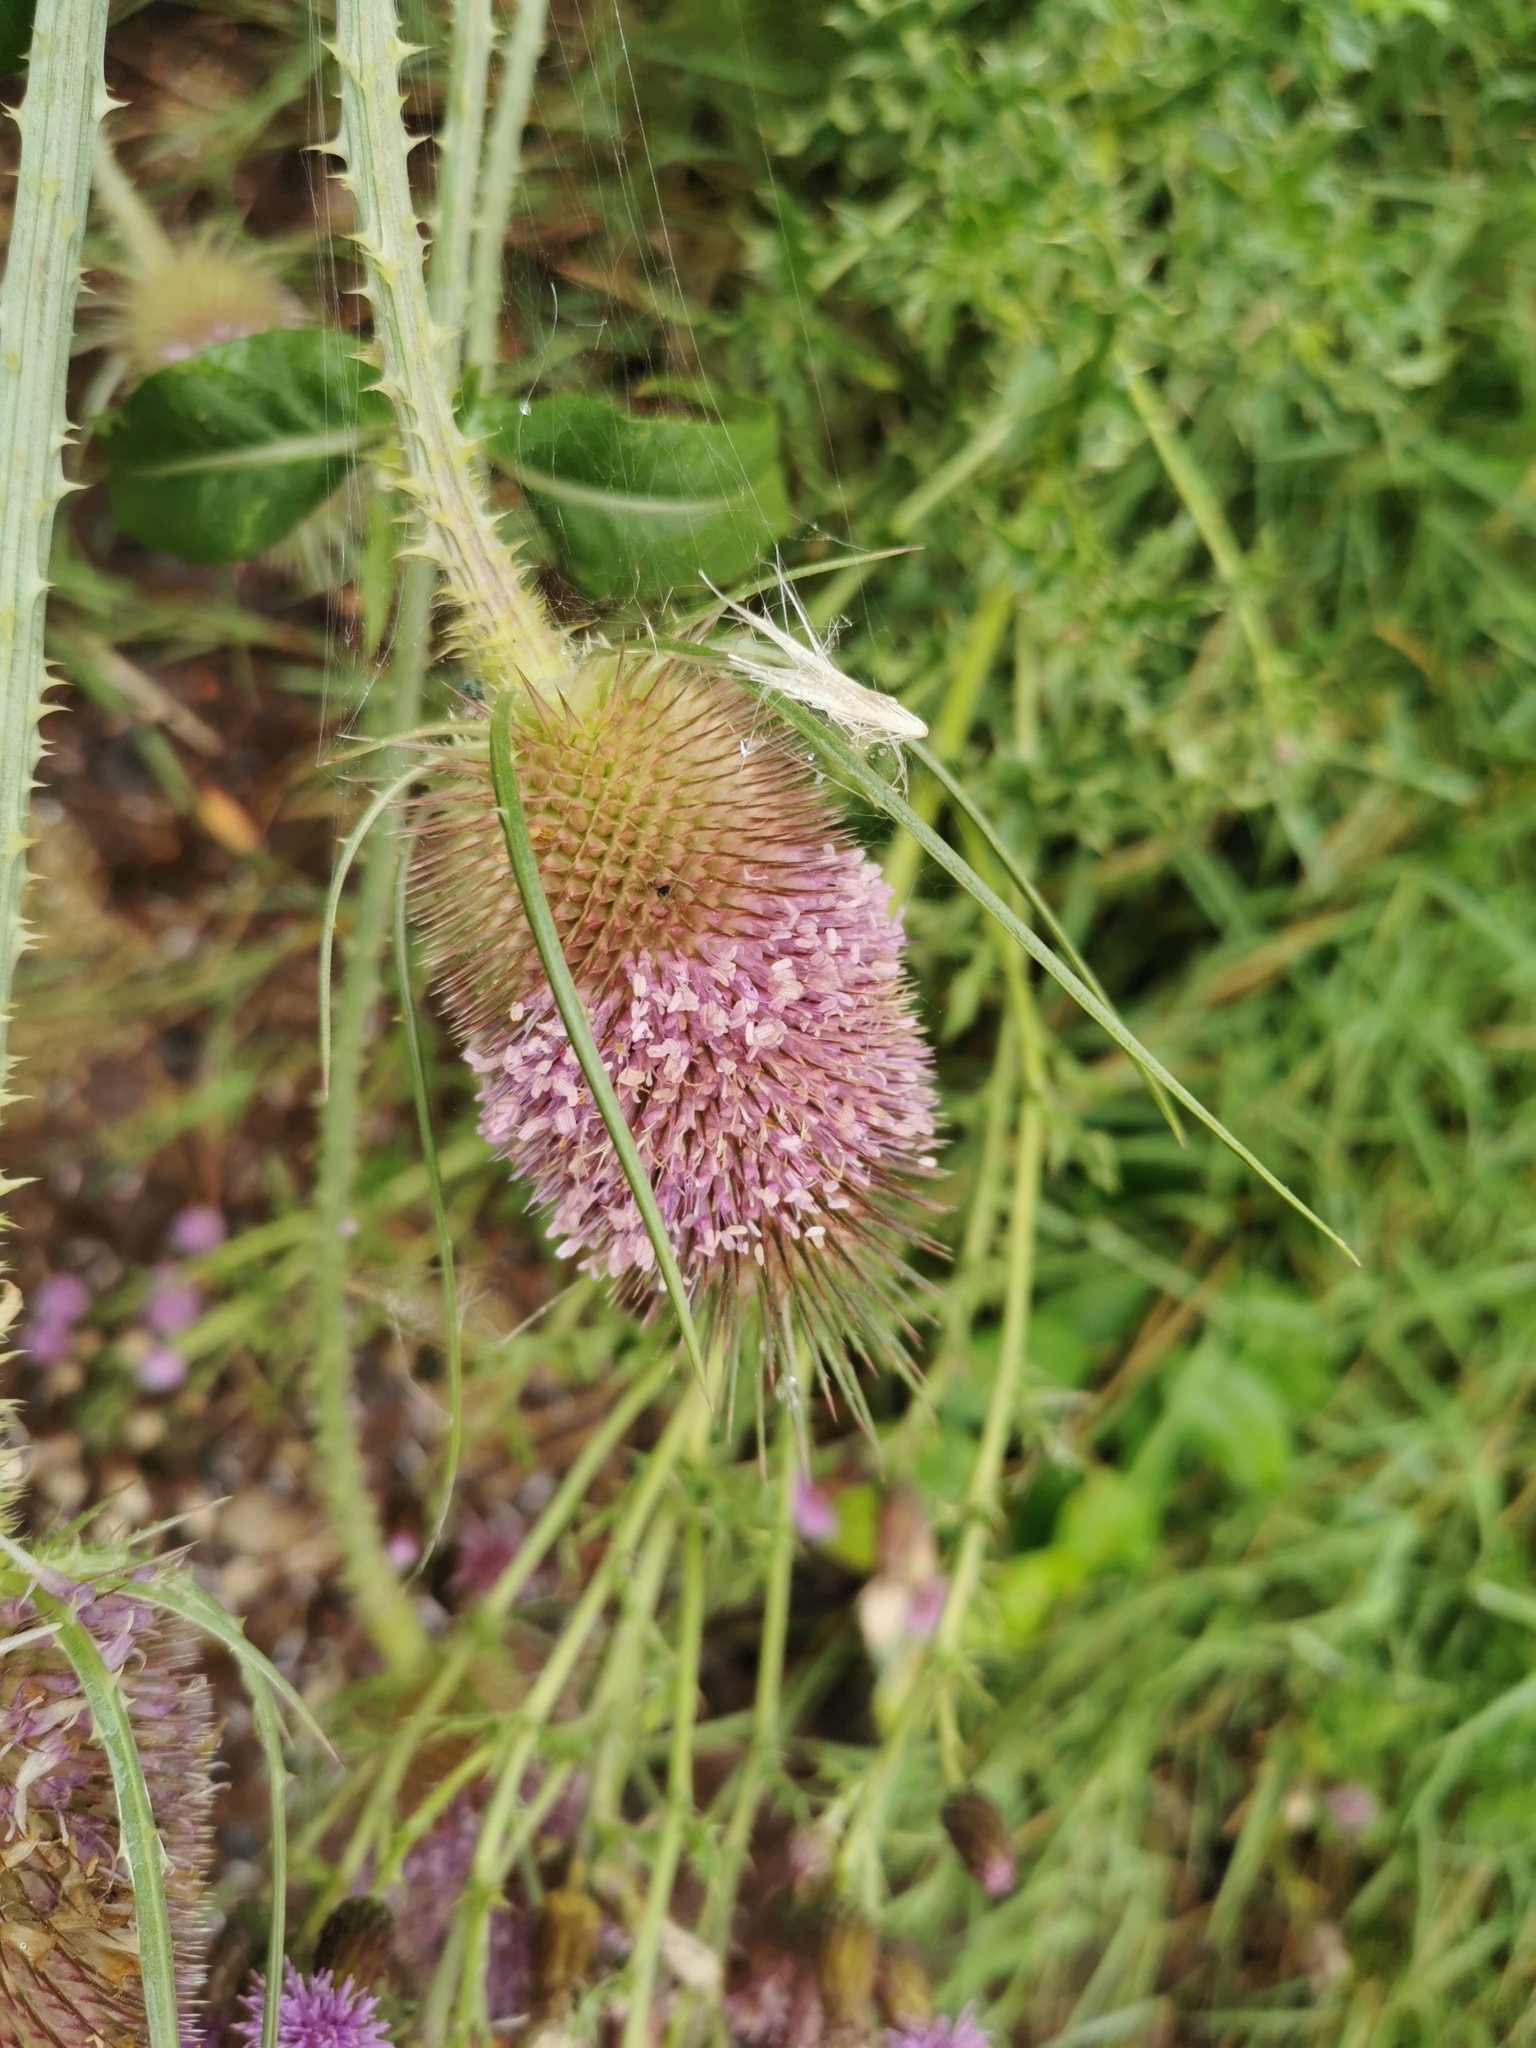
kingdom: Plantae
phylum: Tracheophyta
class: Magnoliopsida
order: Dipsacales
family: Caprifoliaceae
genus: Dipsacus
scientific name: Dipsacus fullonum
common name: Teasel
